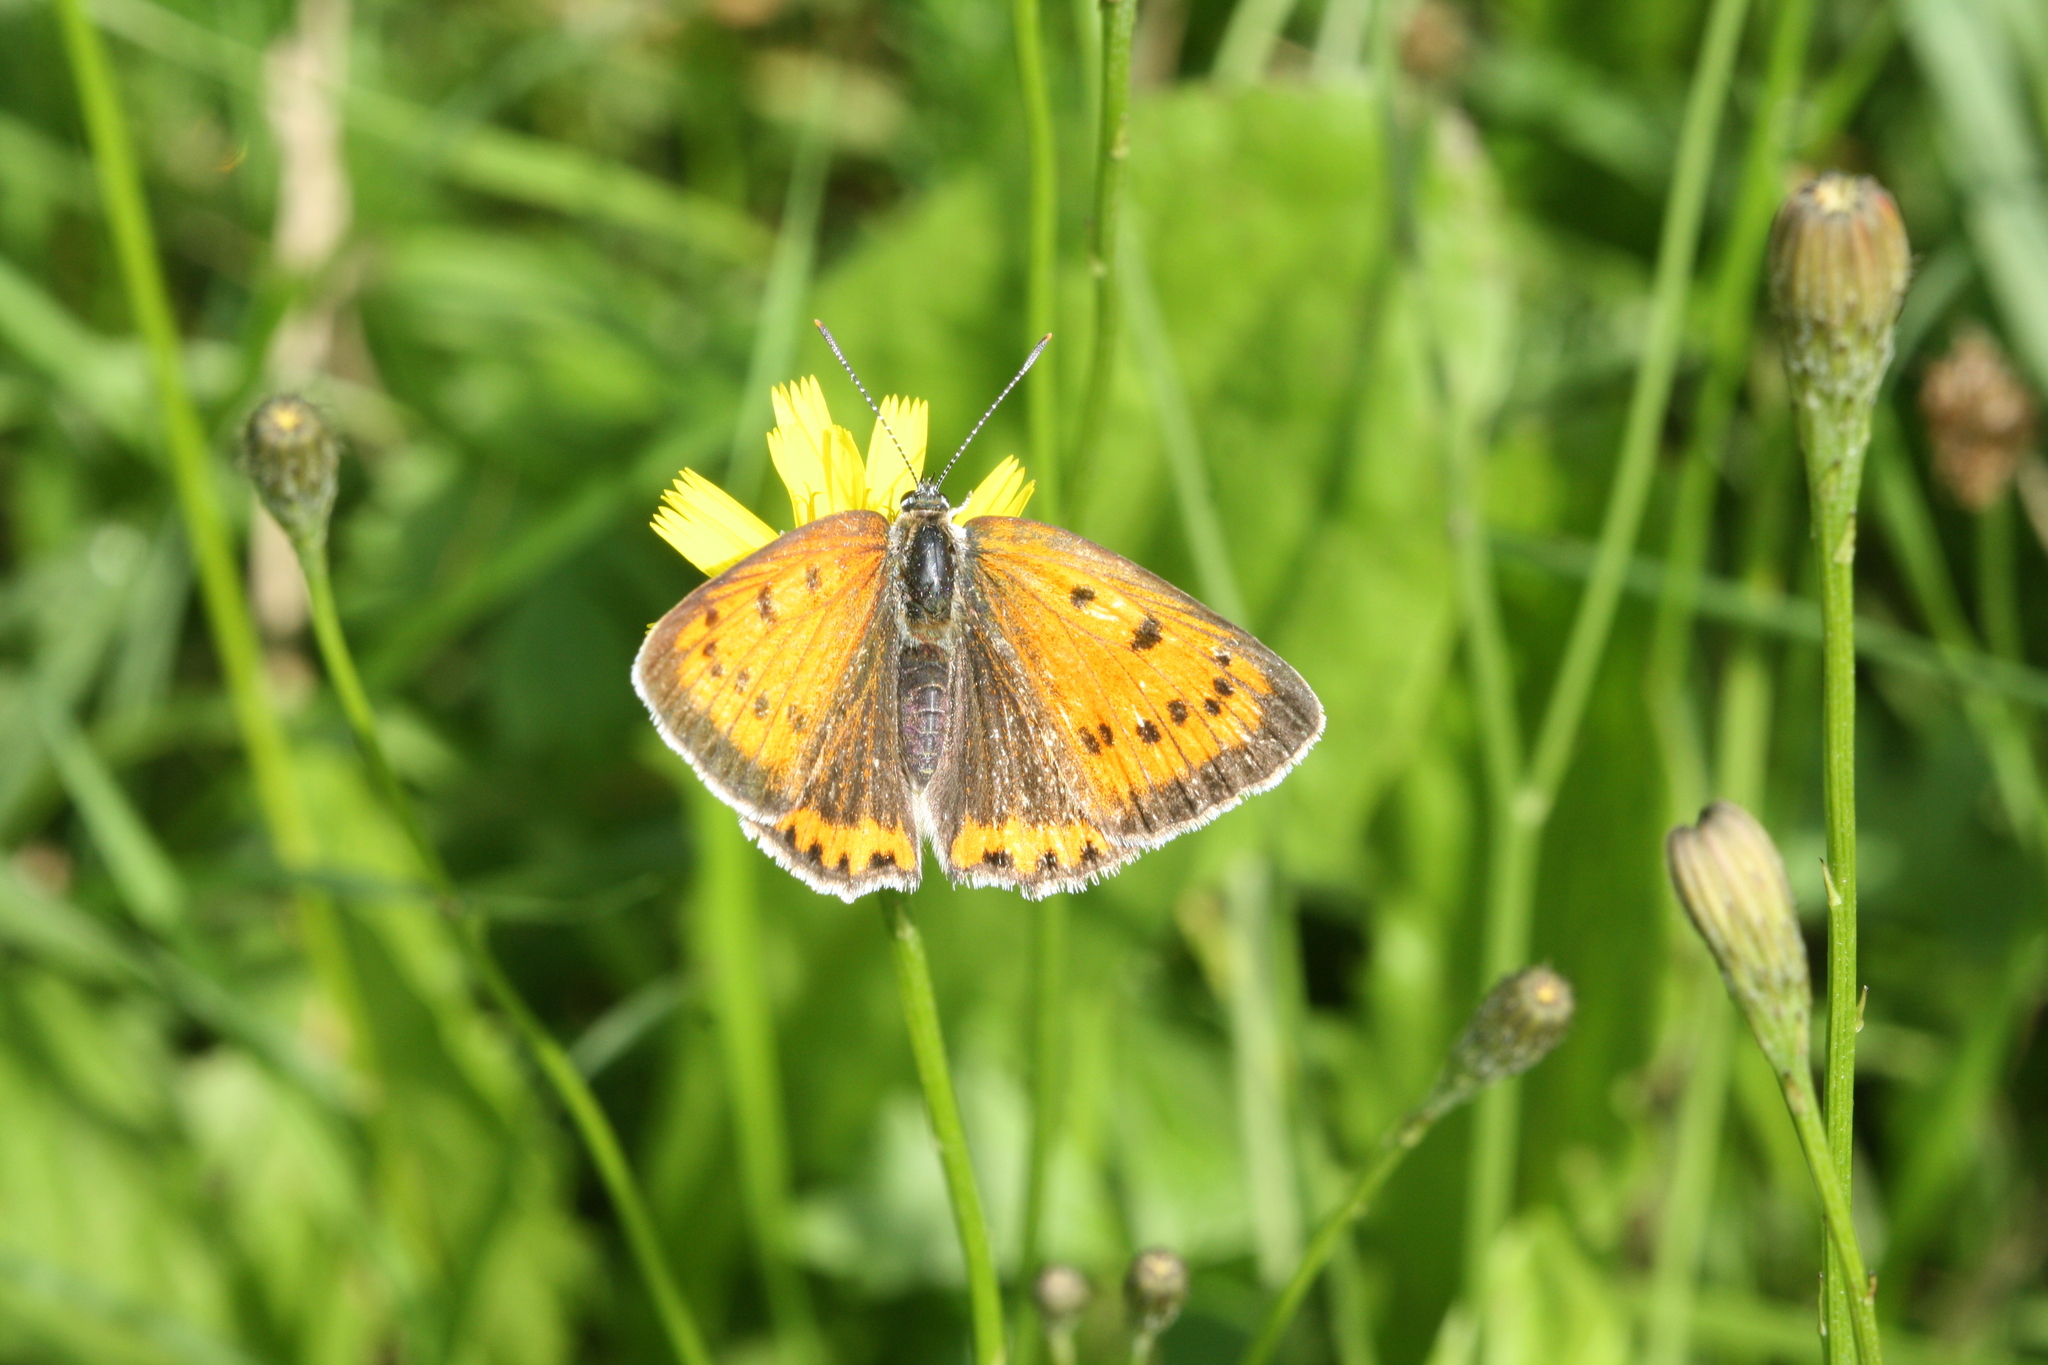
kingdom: Animalia
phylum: Arthropoda
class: Insecta
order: Lepidoptera
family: Lycaenidae
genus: Lycaena
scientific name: Lycaena dispar
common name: Large copper
